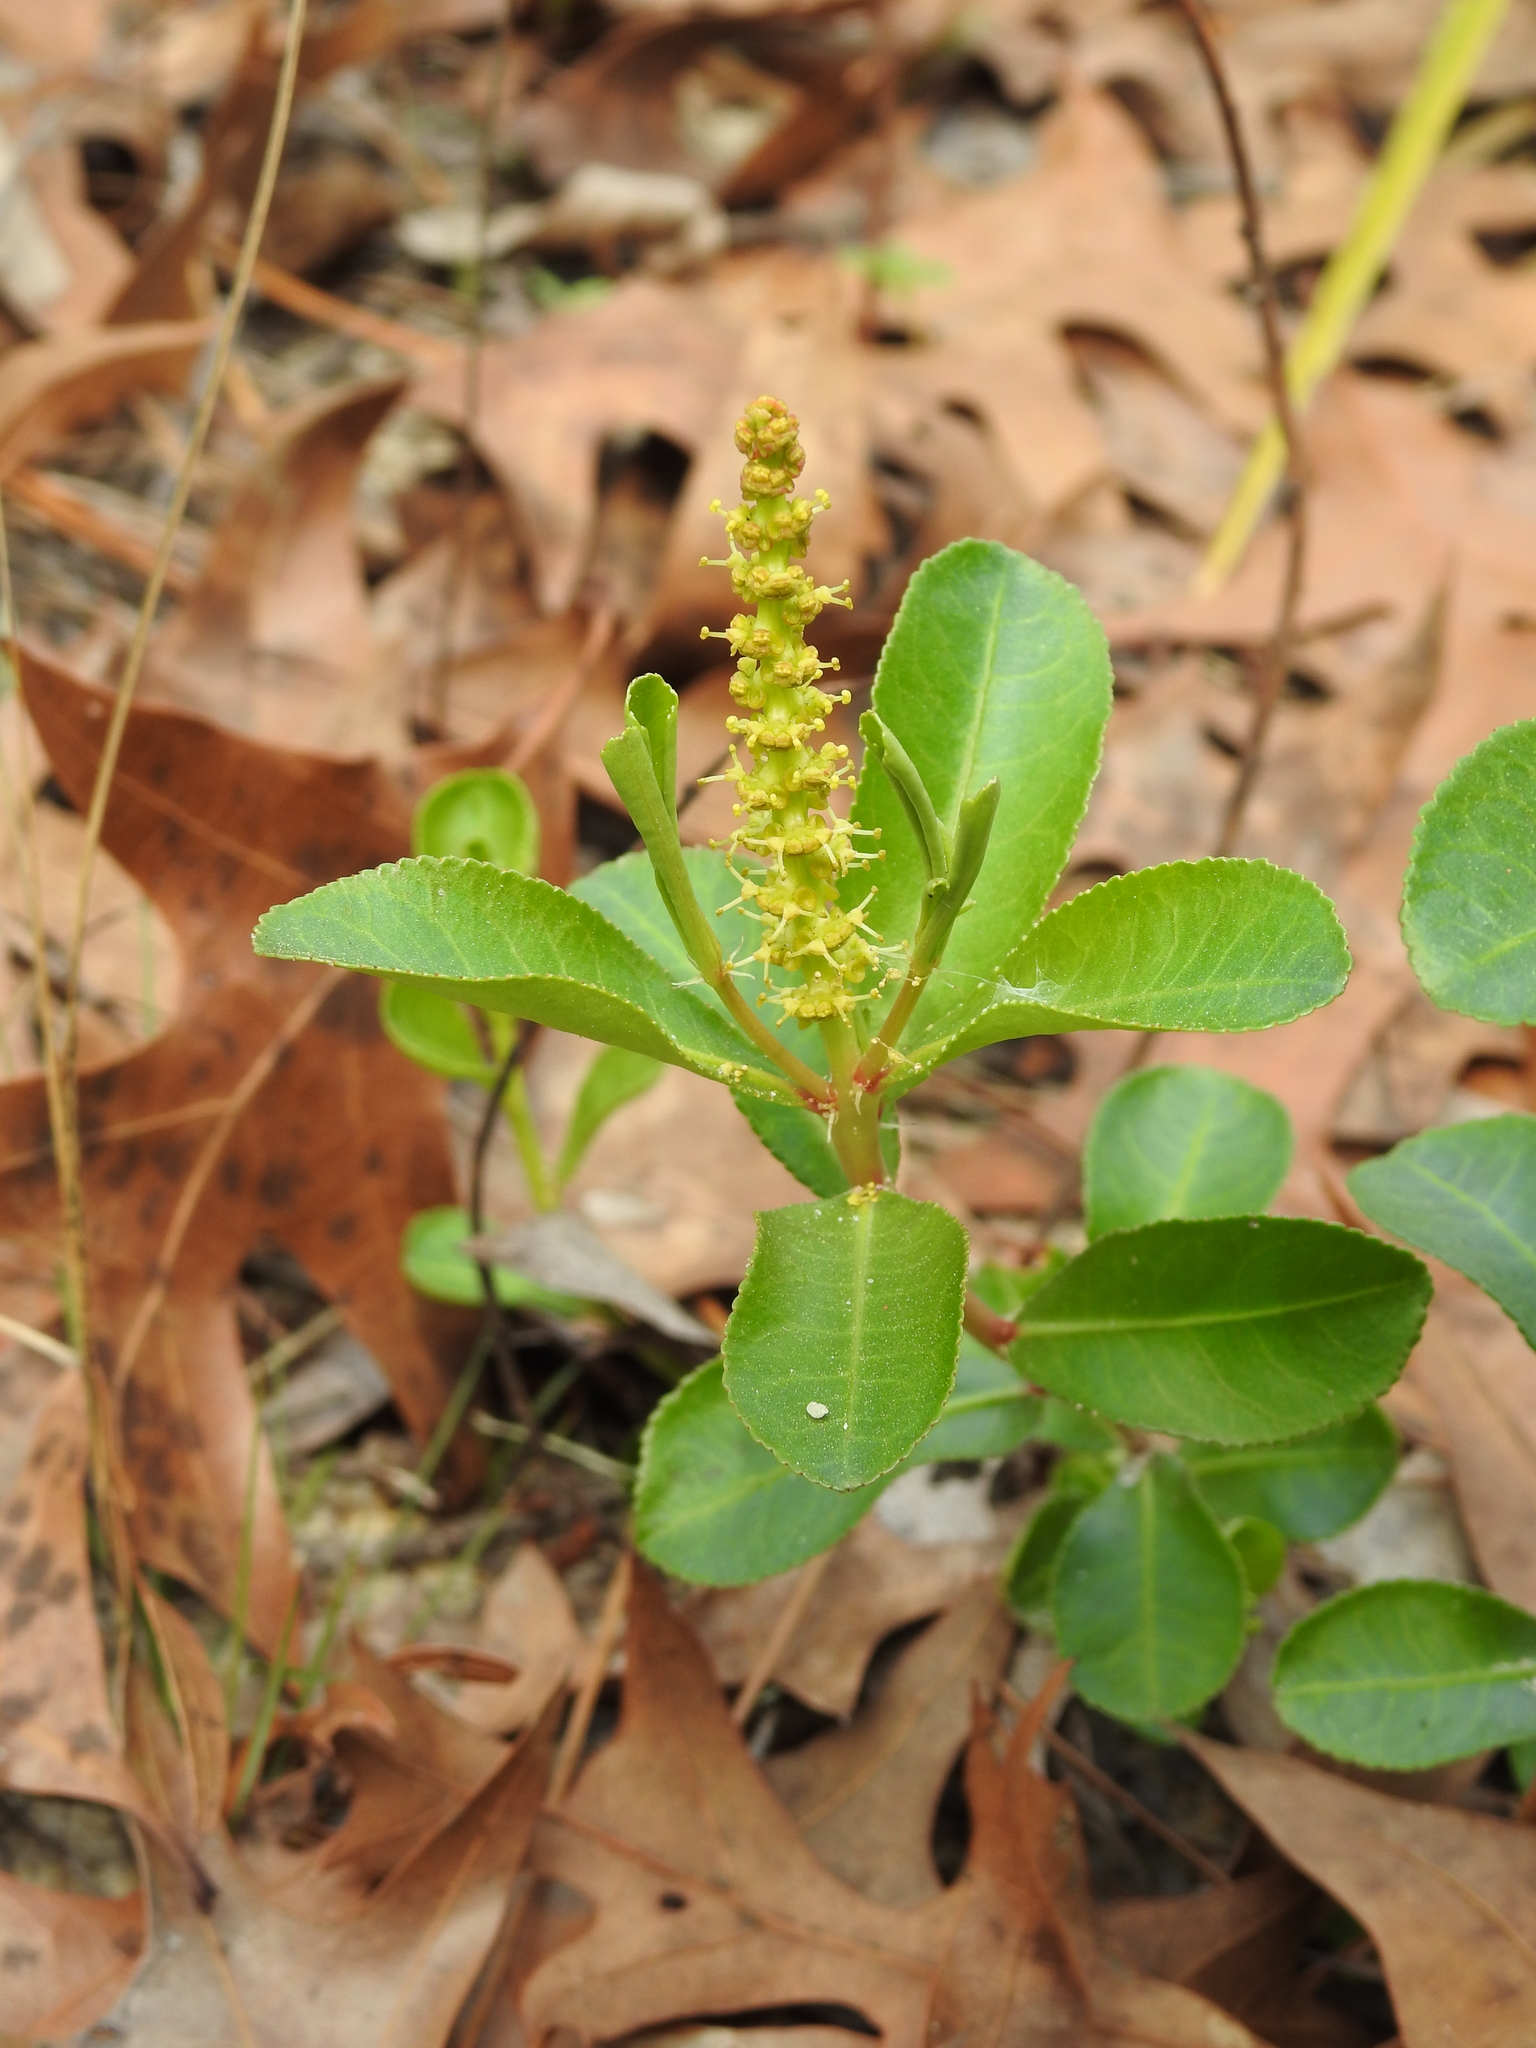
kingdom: Plantae
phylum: Tracheophyta
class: Magnoliopsida
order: Malpighiales
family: Euphorbiaceae
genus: Stillingia
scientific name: Stillingia sylvatica
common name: Queen's-delight
